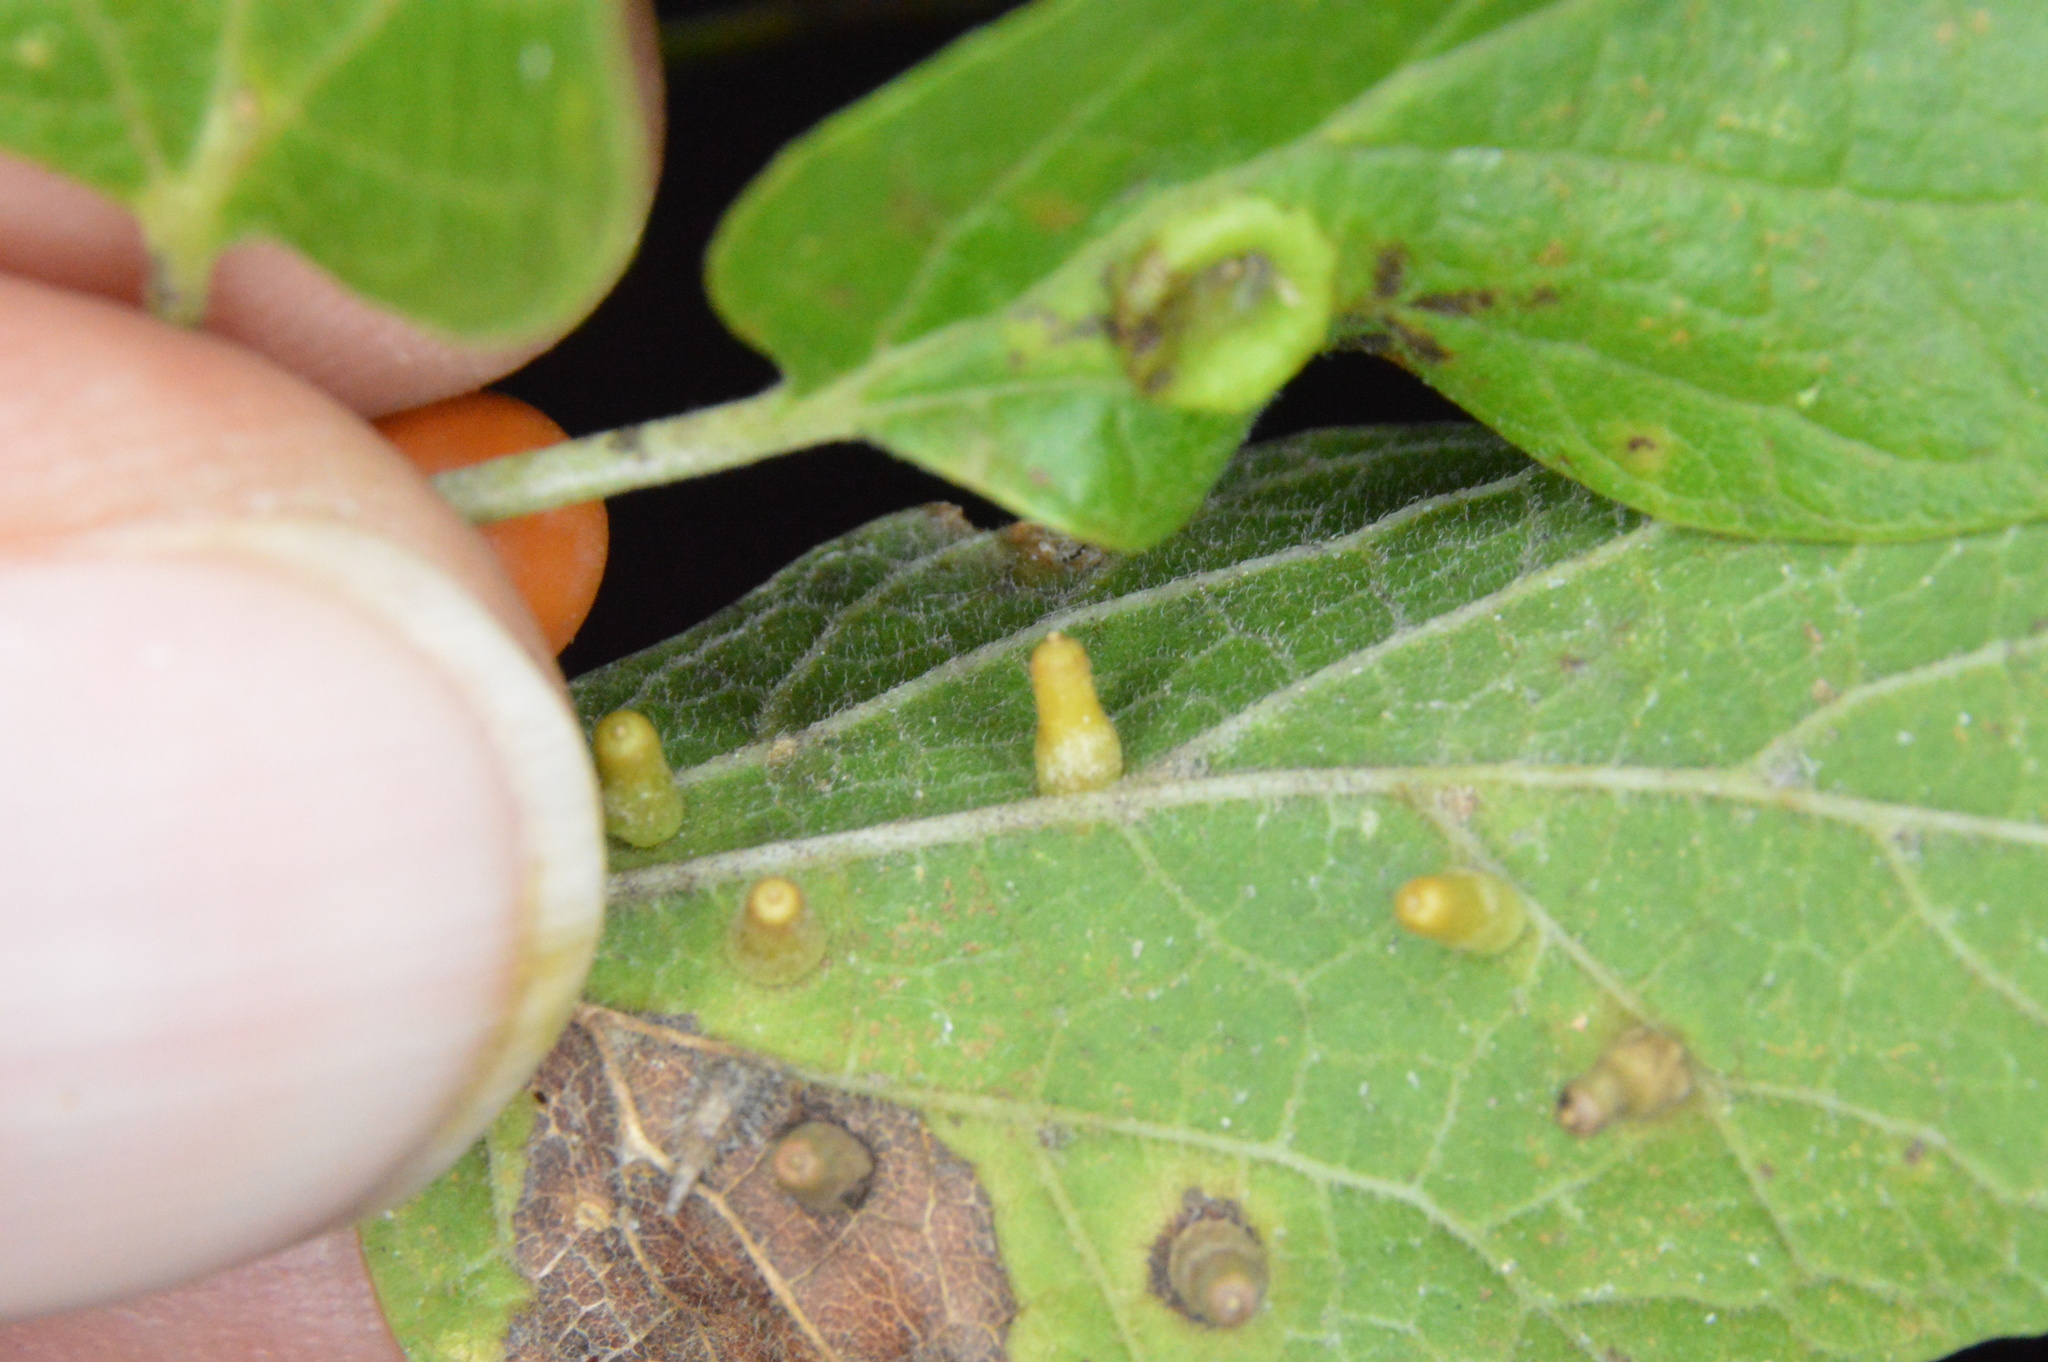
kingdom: Animalia
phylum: Arthropoda
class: Insecta
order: Diptera
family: Cecidomyiidae
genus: Celticecis
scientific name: Celticecis aciculata
